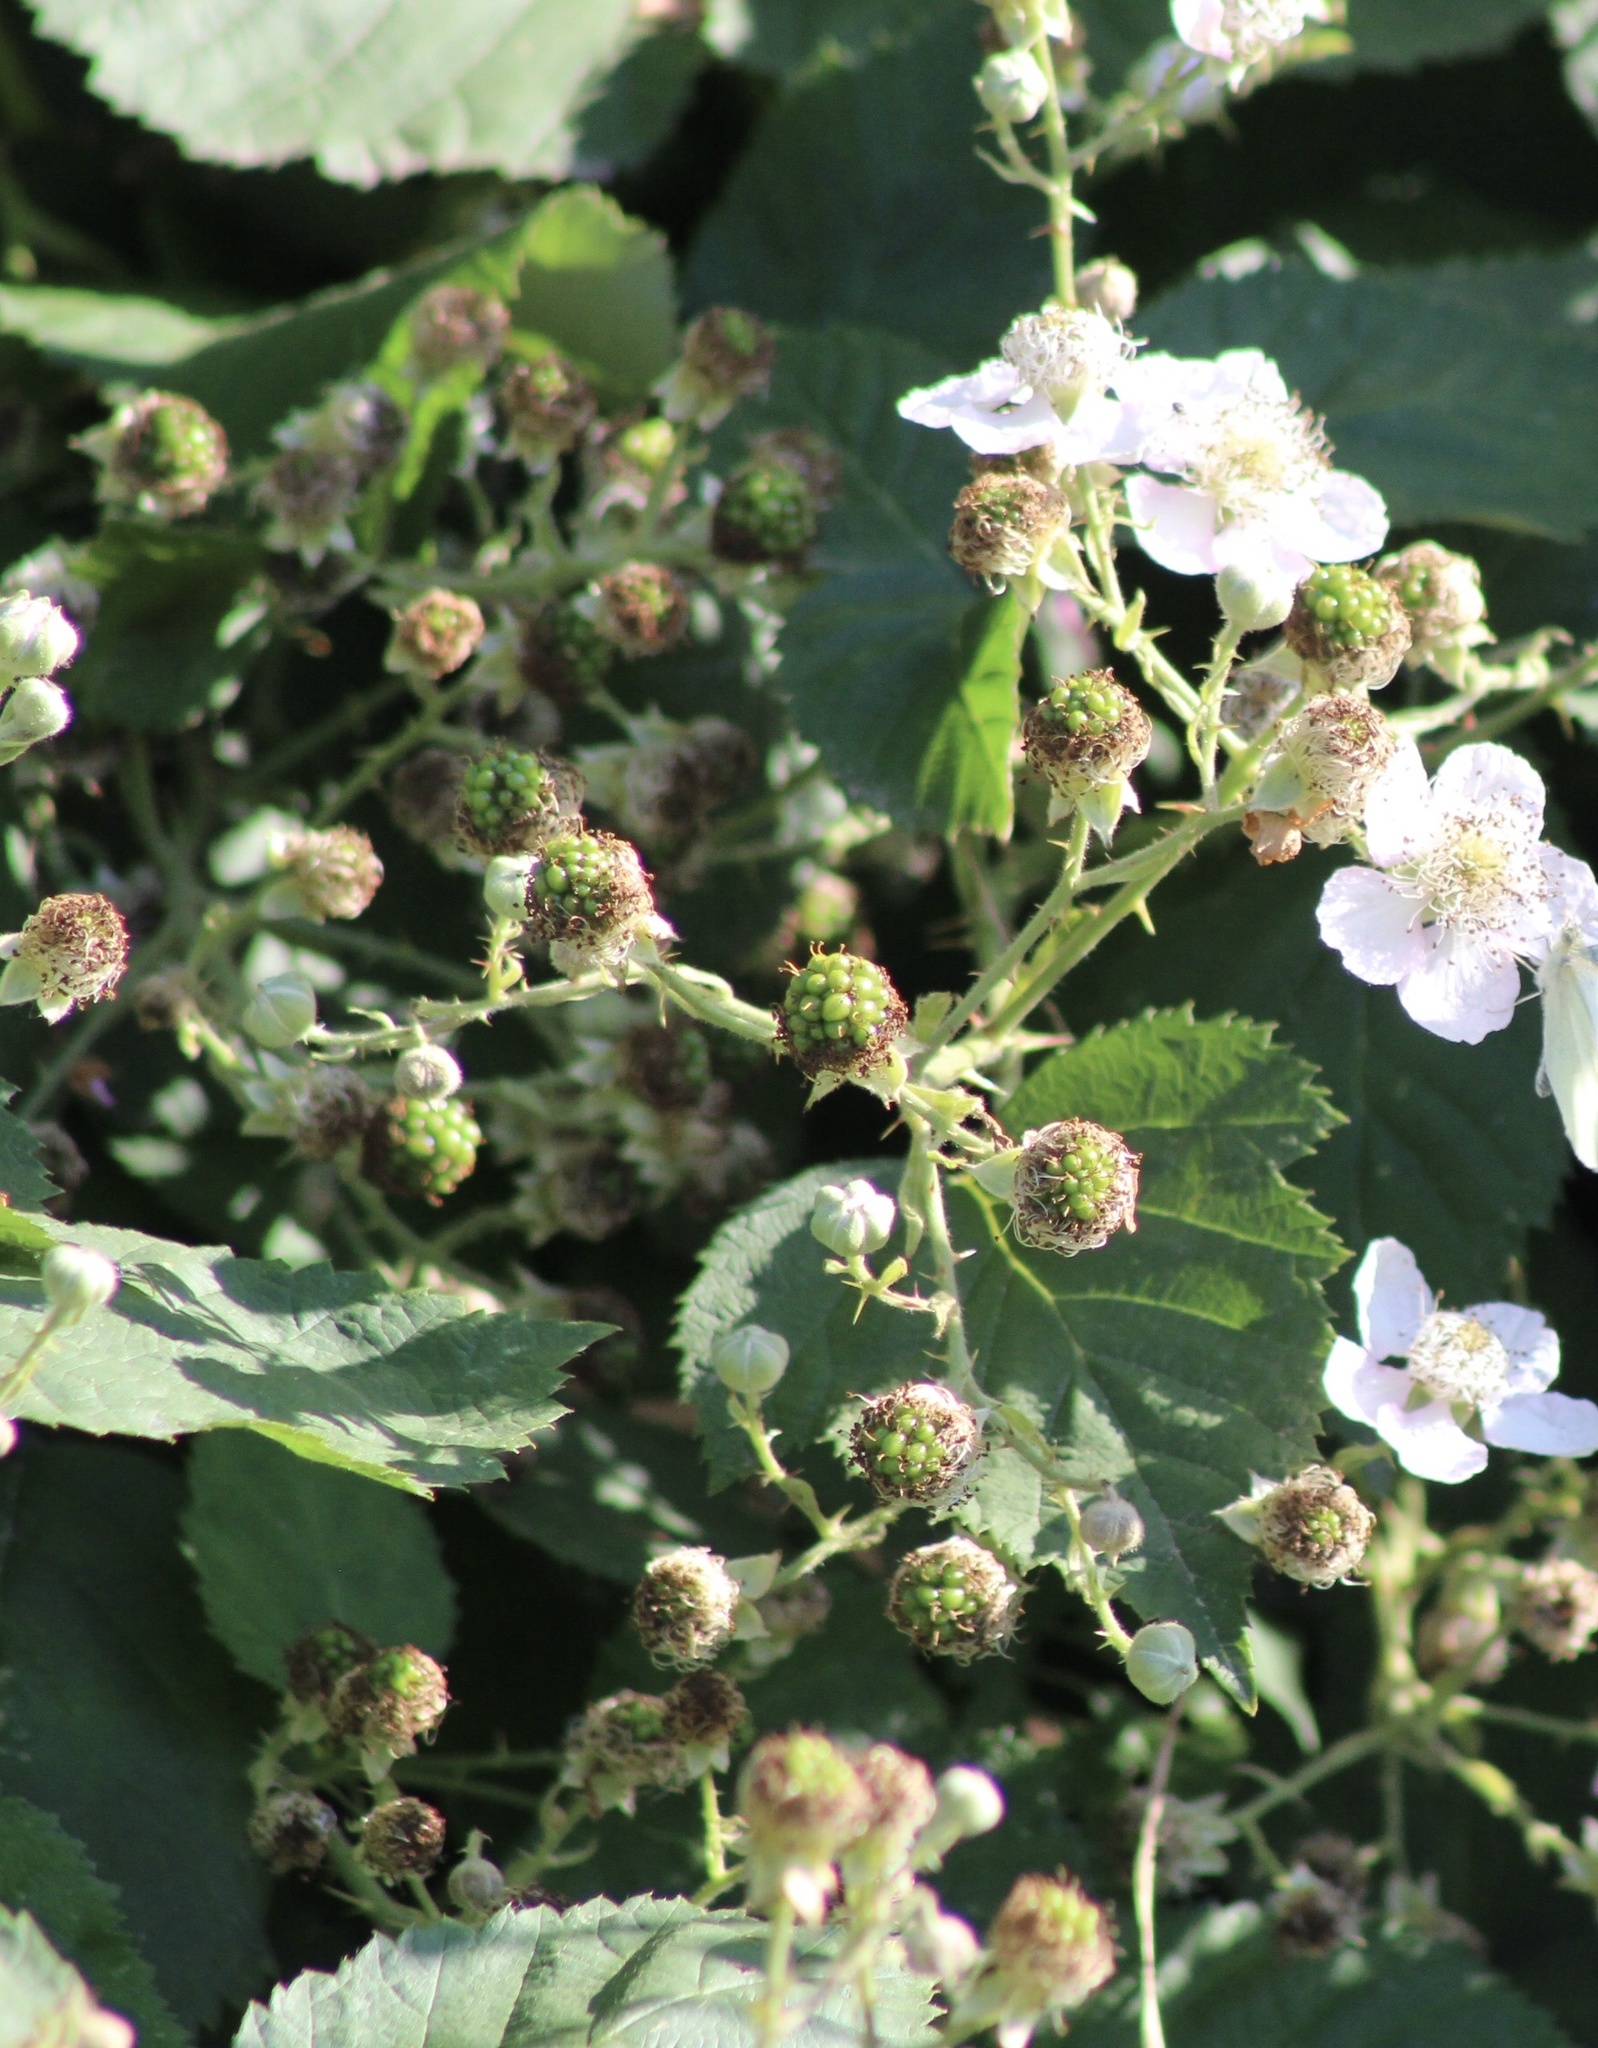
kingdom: Plantae
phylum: Tracheophyta
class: Magnoliopsida
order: Rosales
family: Rosaceae
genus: Rubus
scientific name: Rubus armeniacus
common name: Himalayan blackberry
